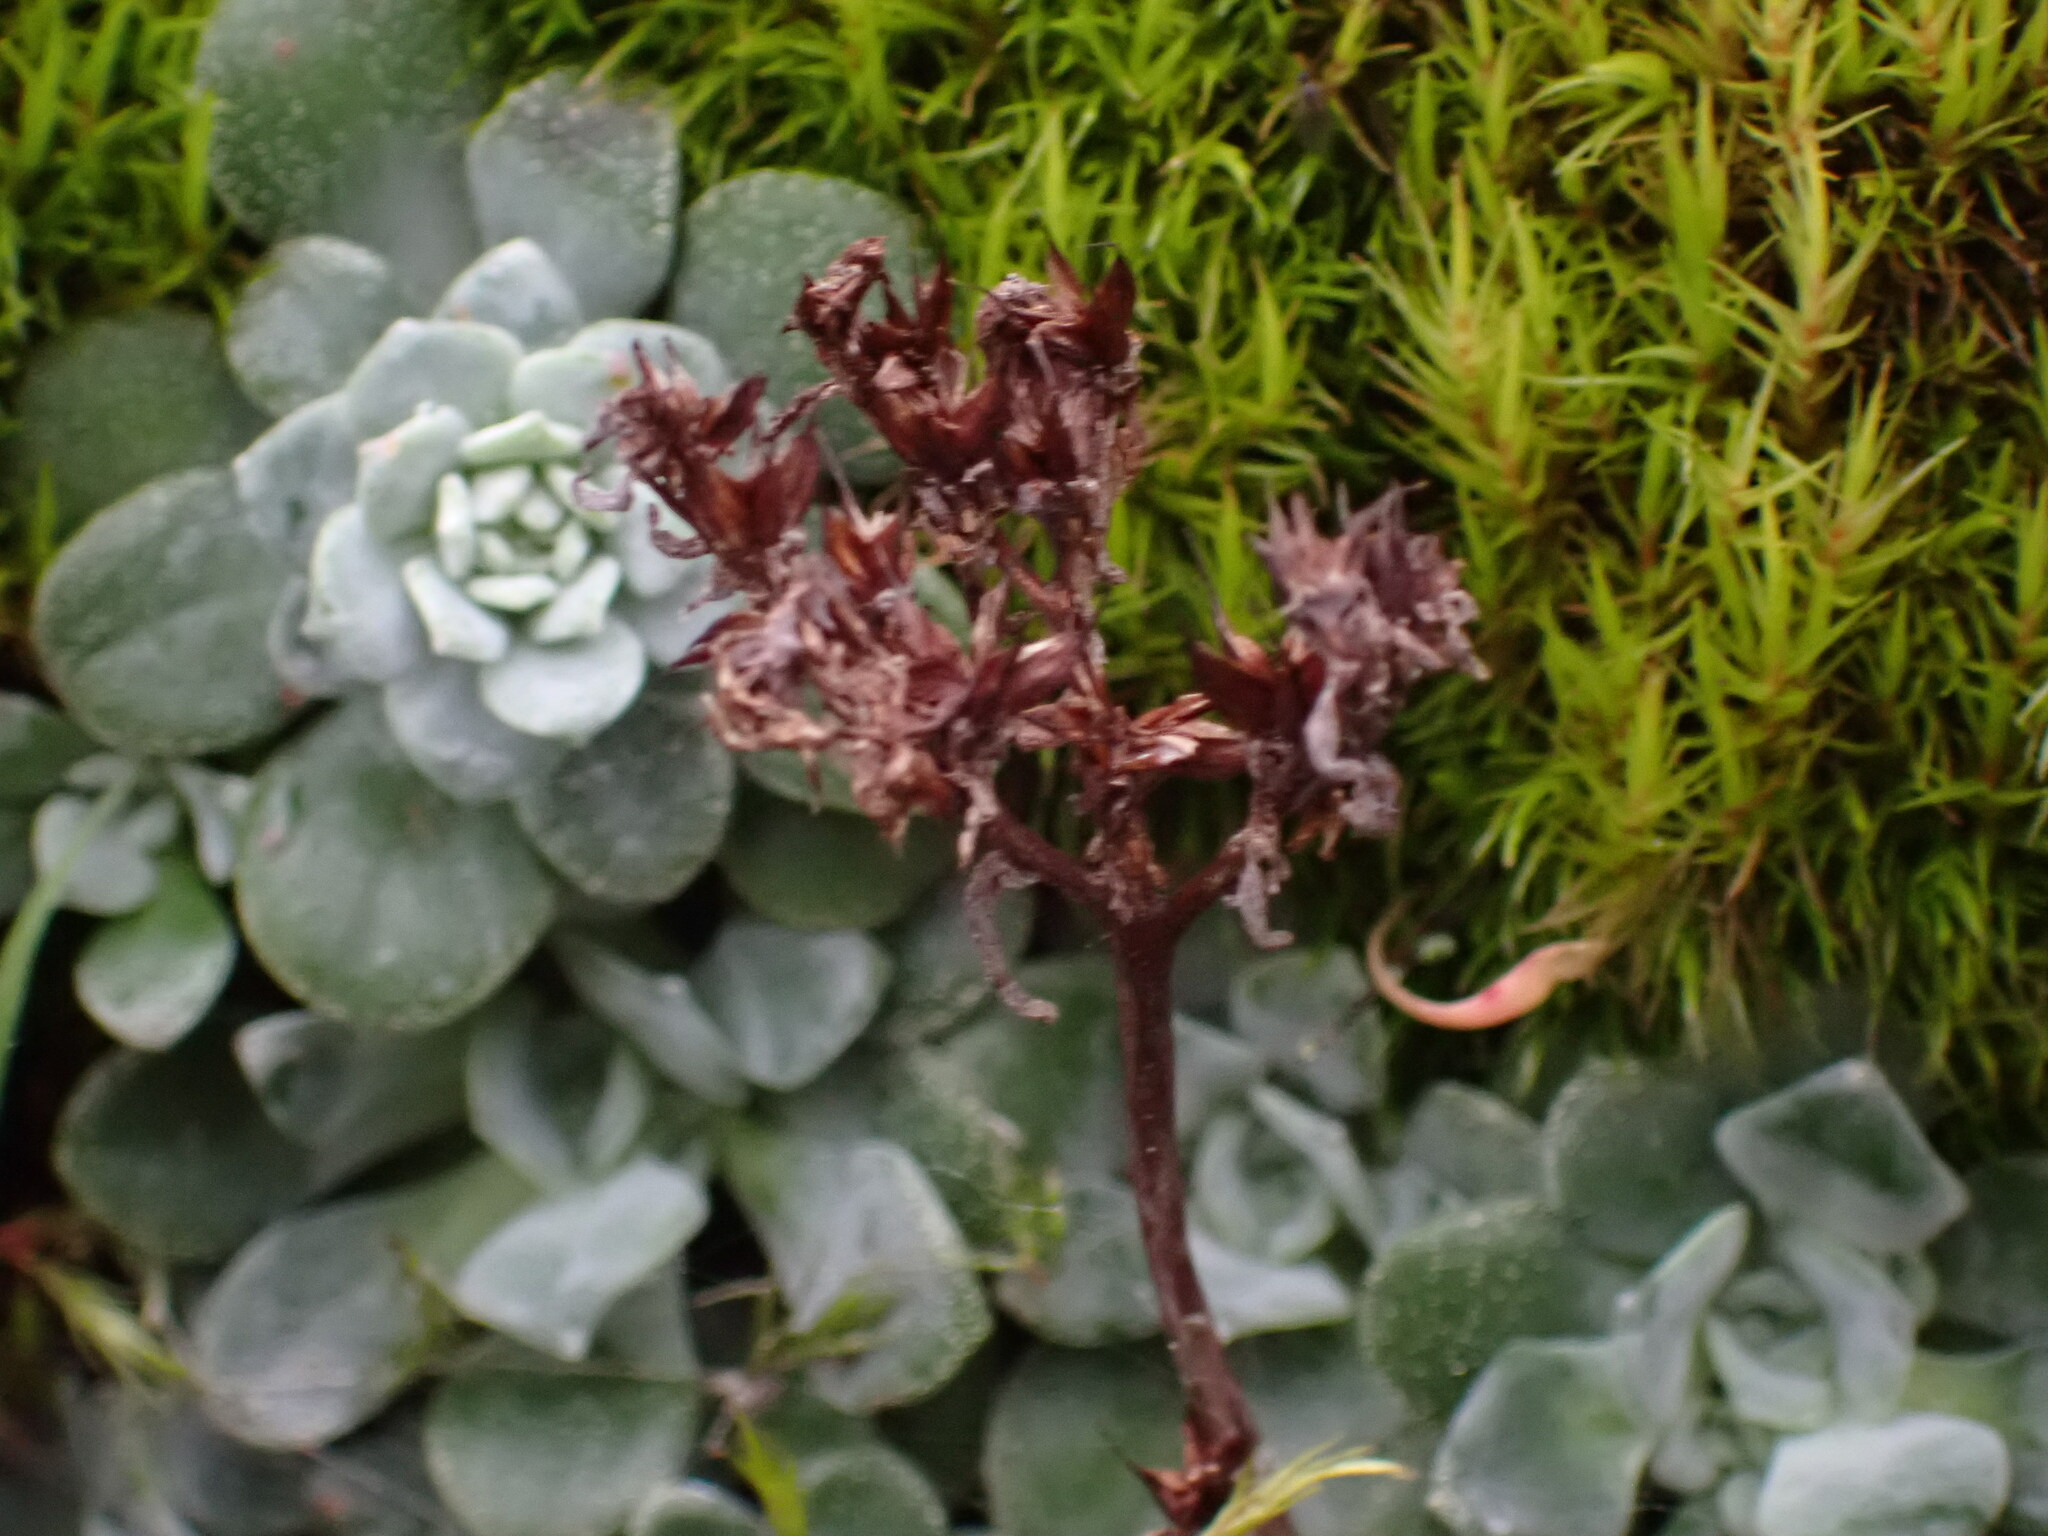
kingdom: Plantae
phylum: Tracheophyta
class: Magnoliopsida
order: Saxifragales
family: Crassulaceae
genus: Sedum
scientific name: Sedum spathulifolium
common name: Colorado stonecrop
